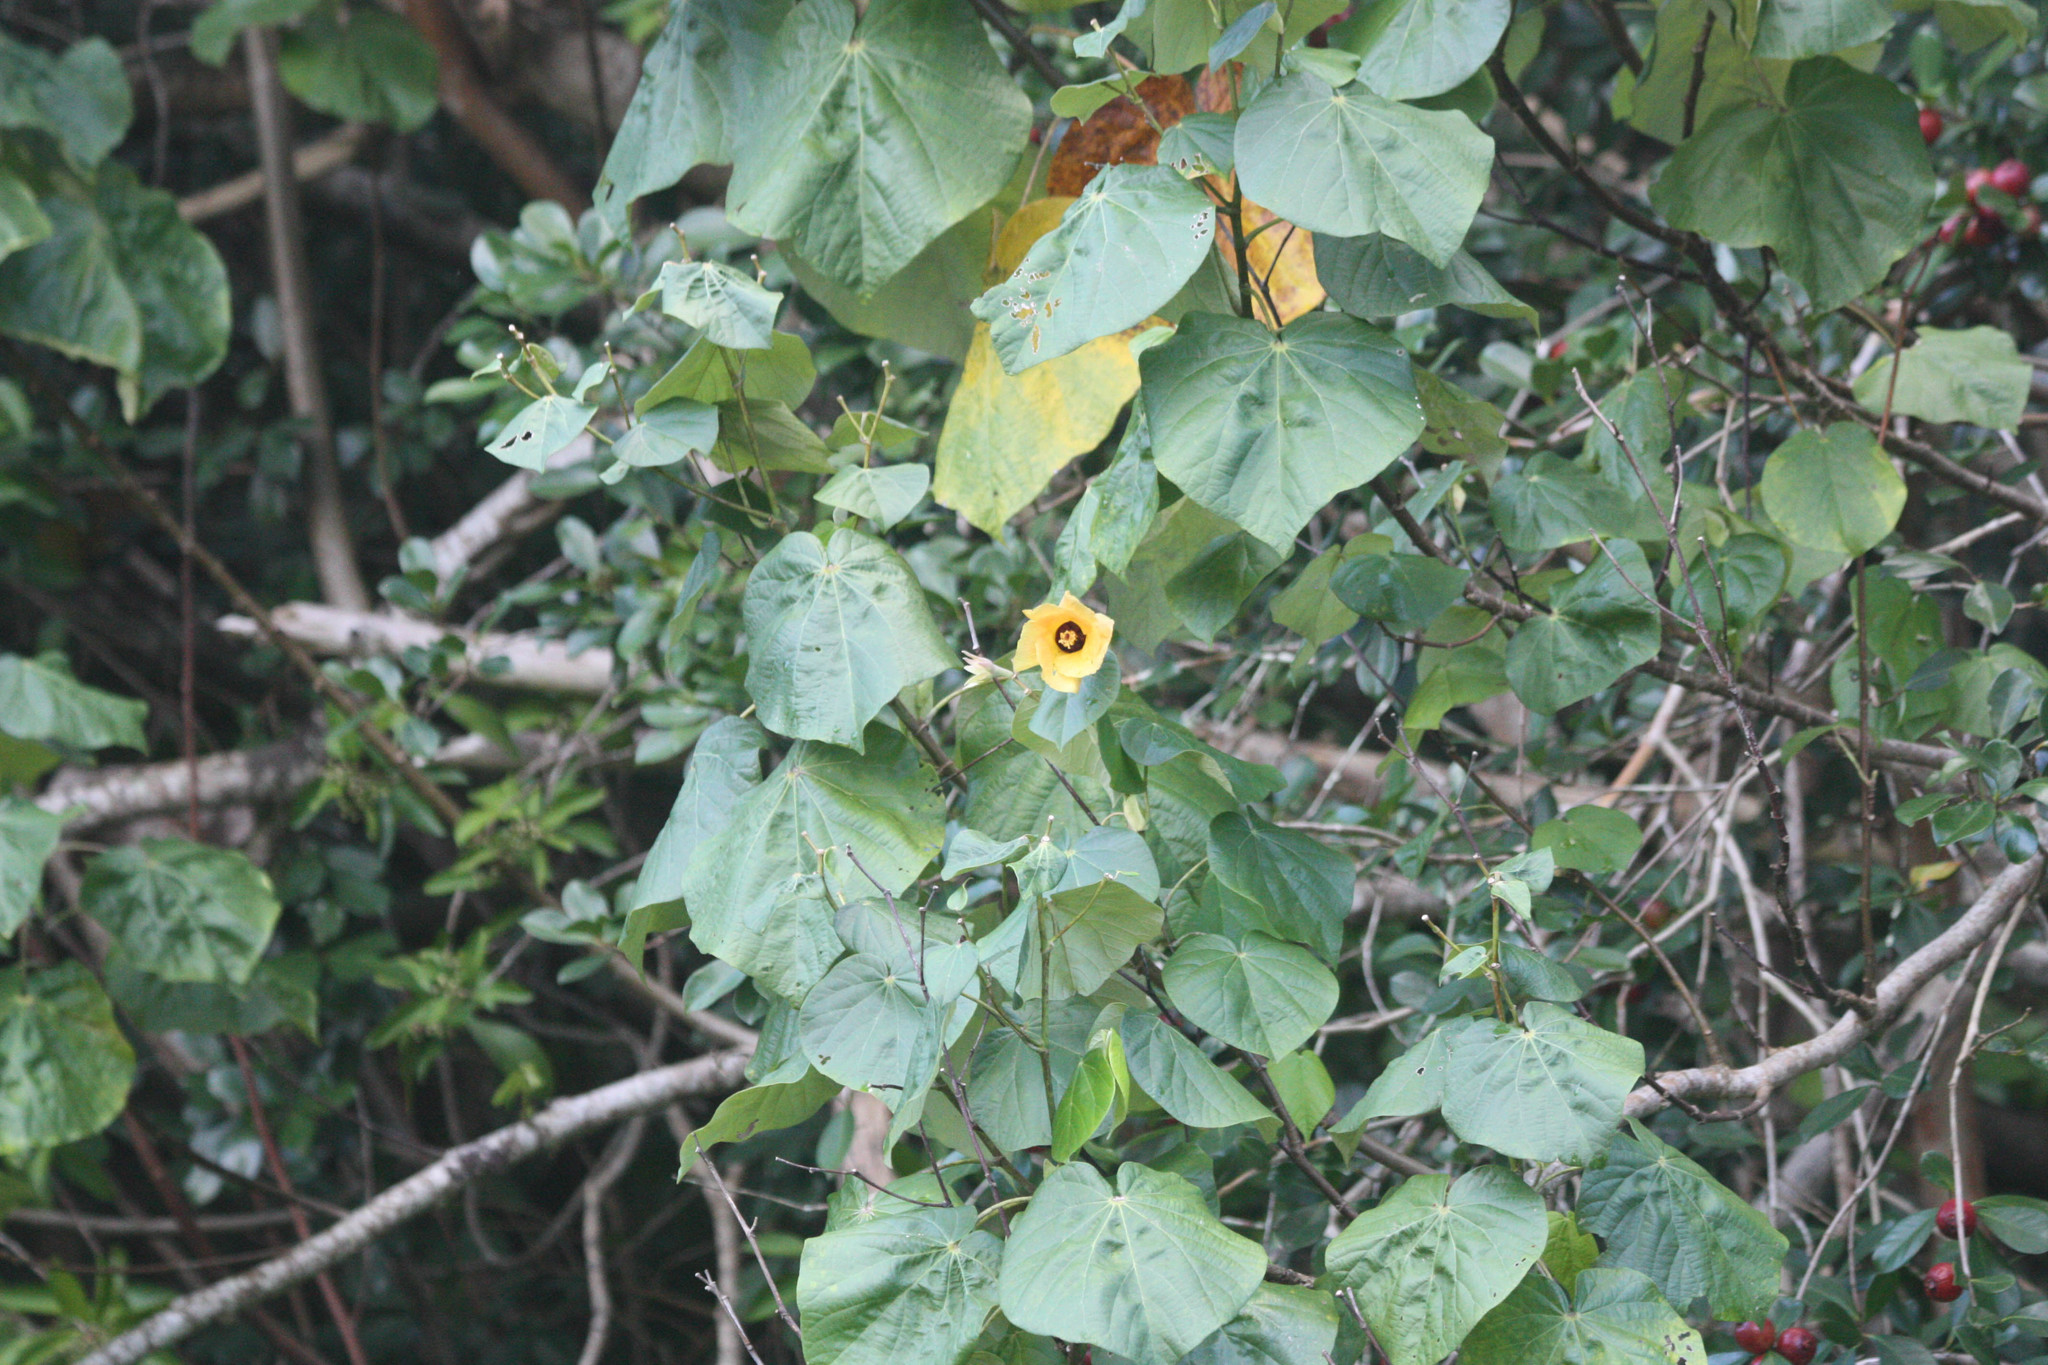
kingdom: Plantae
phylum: Tracheophyta
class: Magnoliopsida
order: Malvales
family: Malvaceae
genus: Talipariti
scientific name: Talipariti tiliaceum
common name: Sea hibiscus
